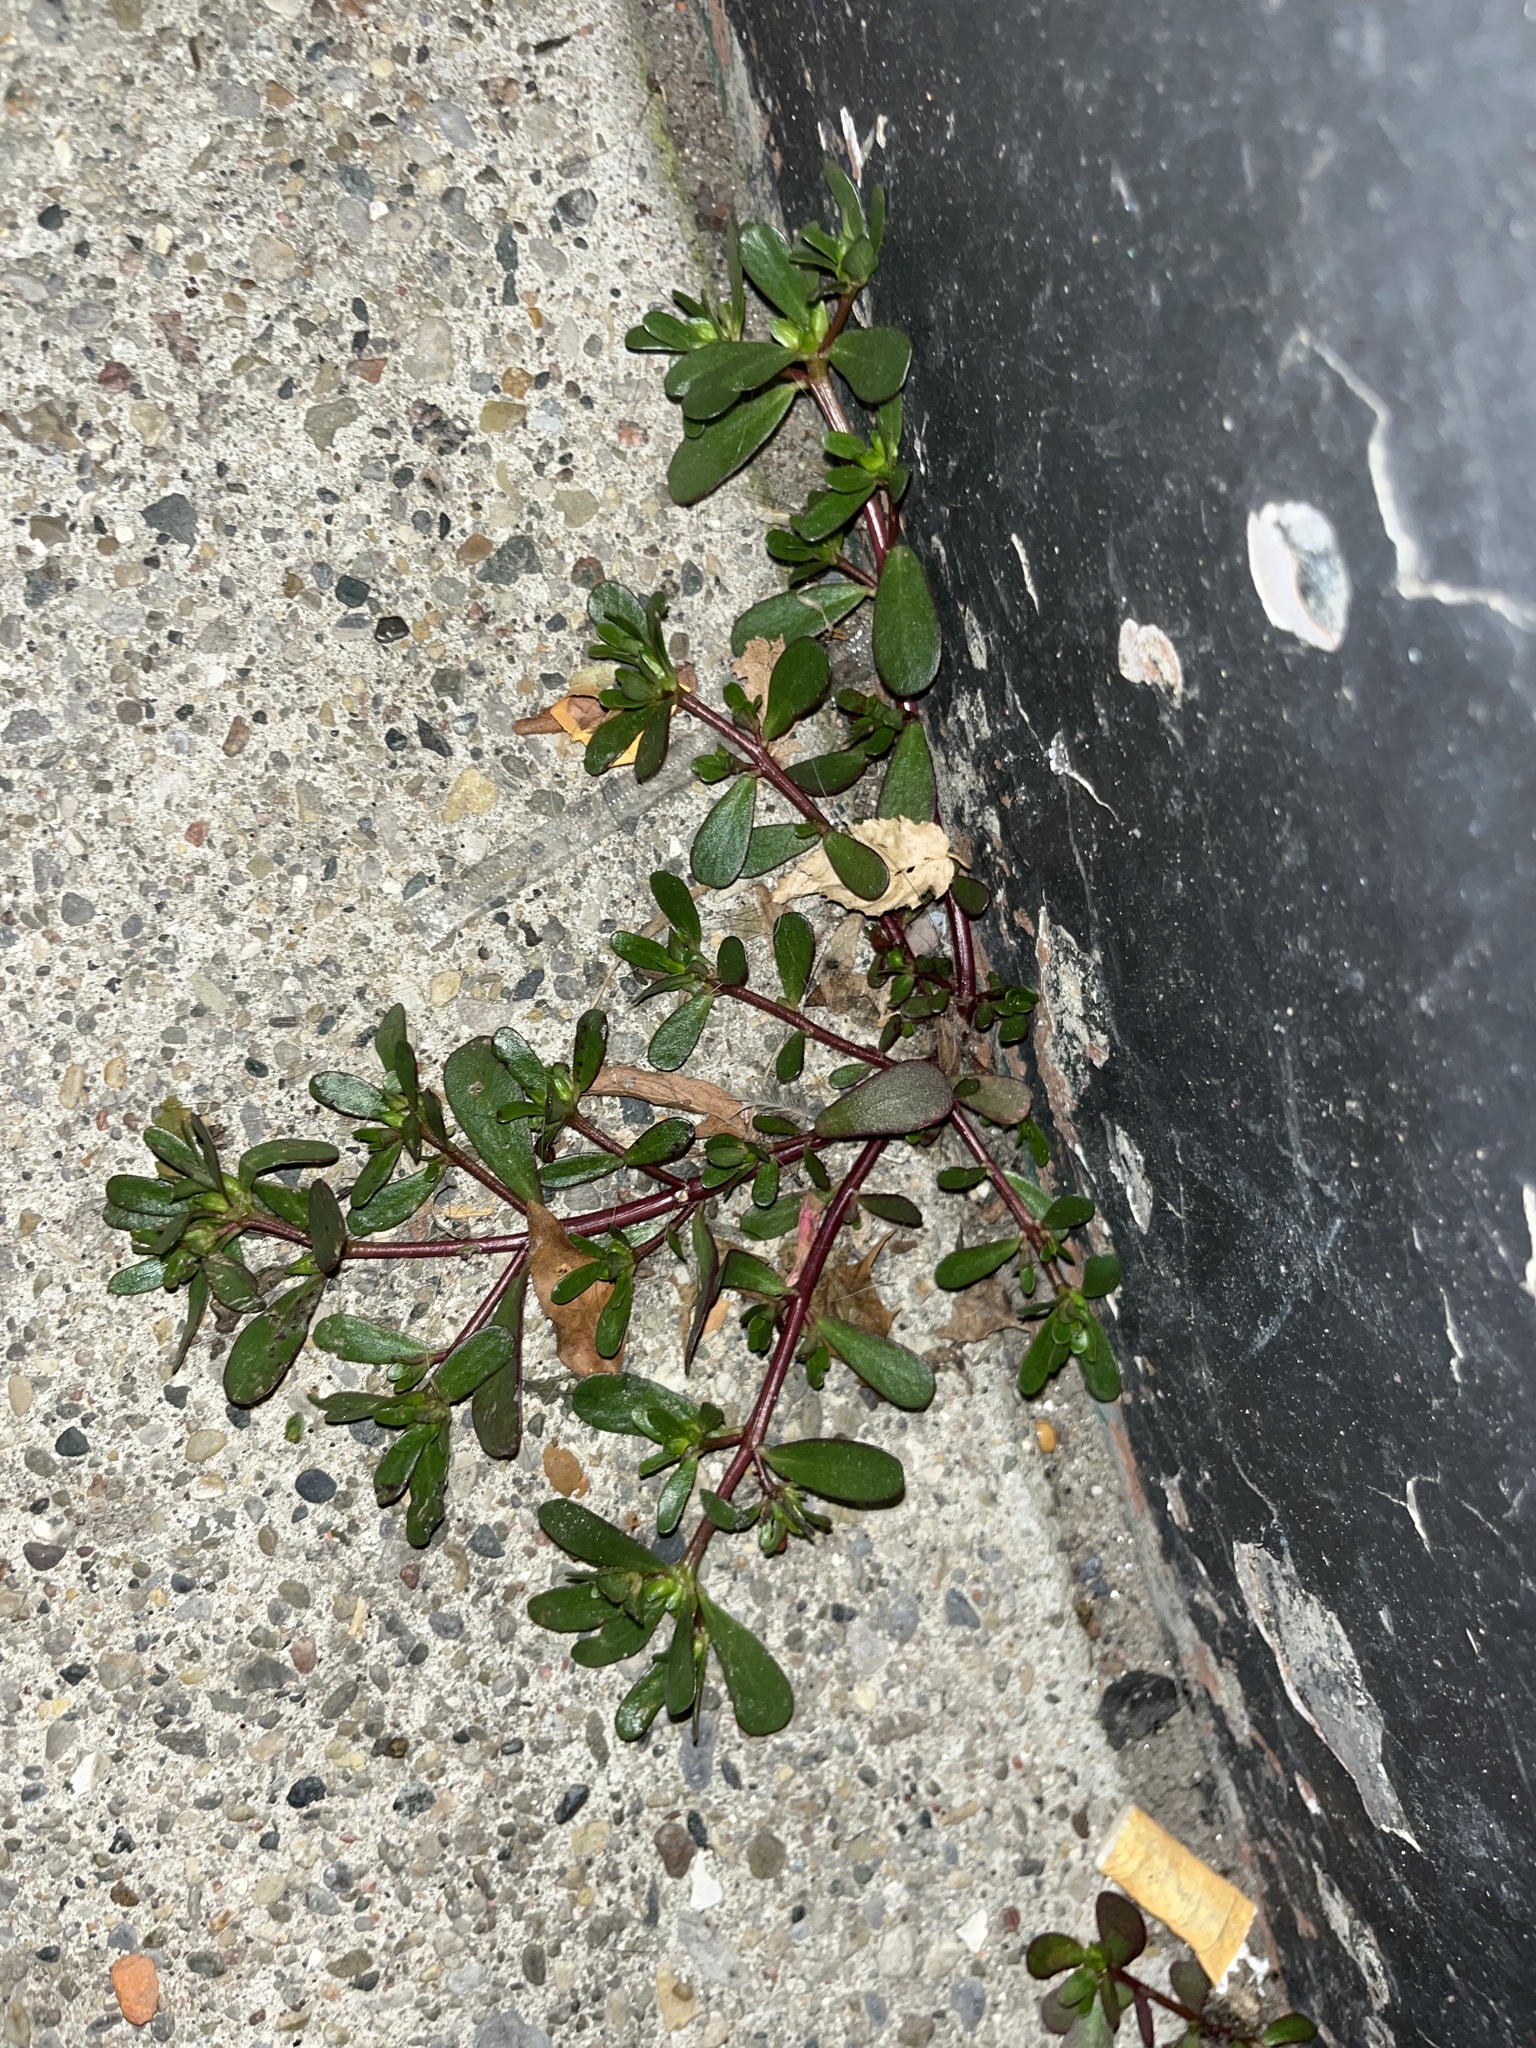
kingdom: Plantae
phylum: Tracheophyta
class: Magnoliopsida
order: Caryophyllales
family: Portulacaceae
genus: Portulaca
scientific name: Portulaca oleracea
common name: Common purslane
